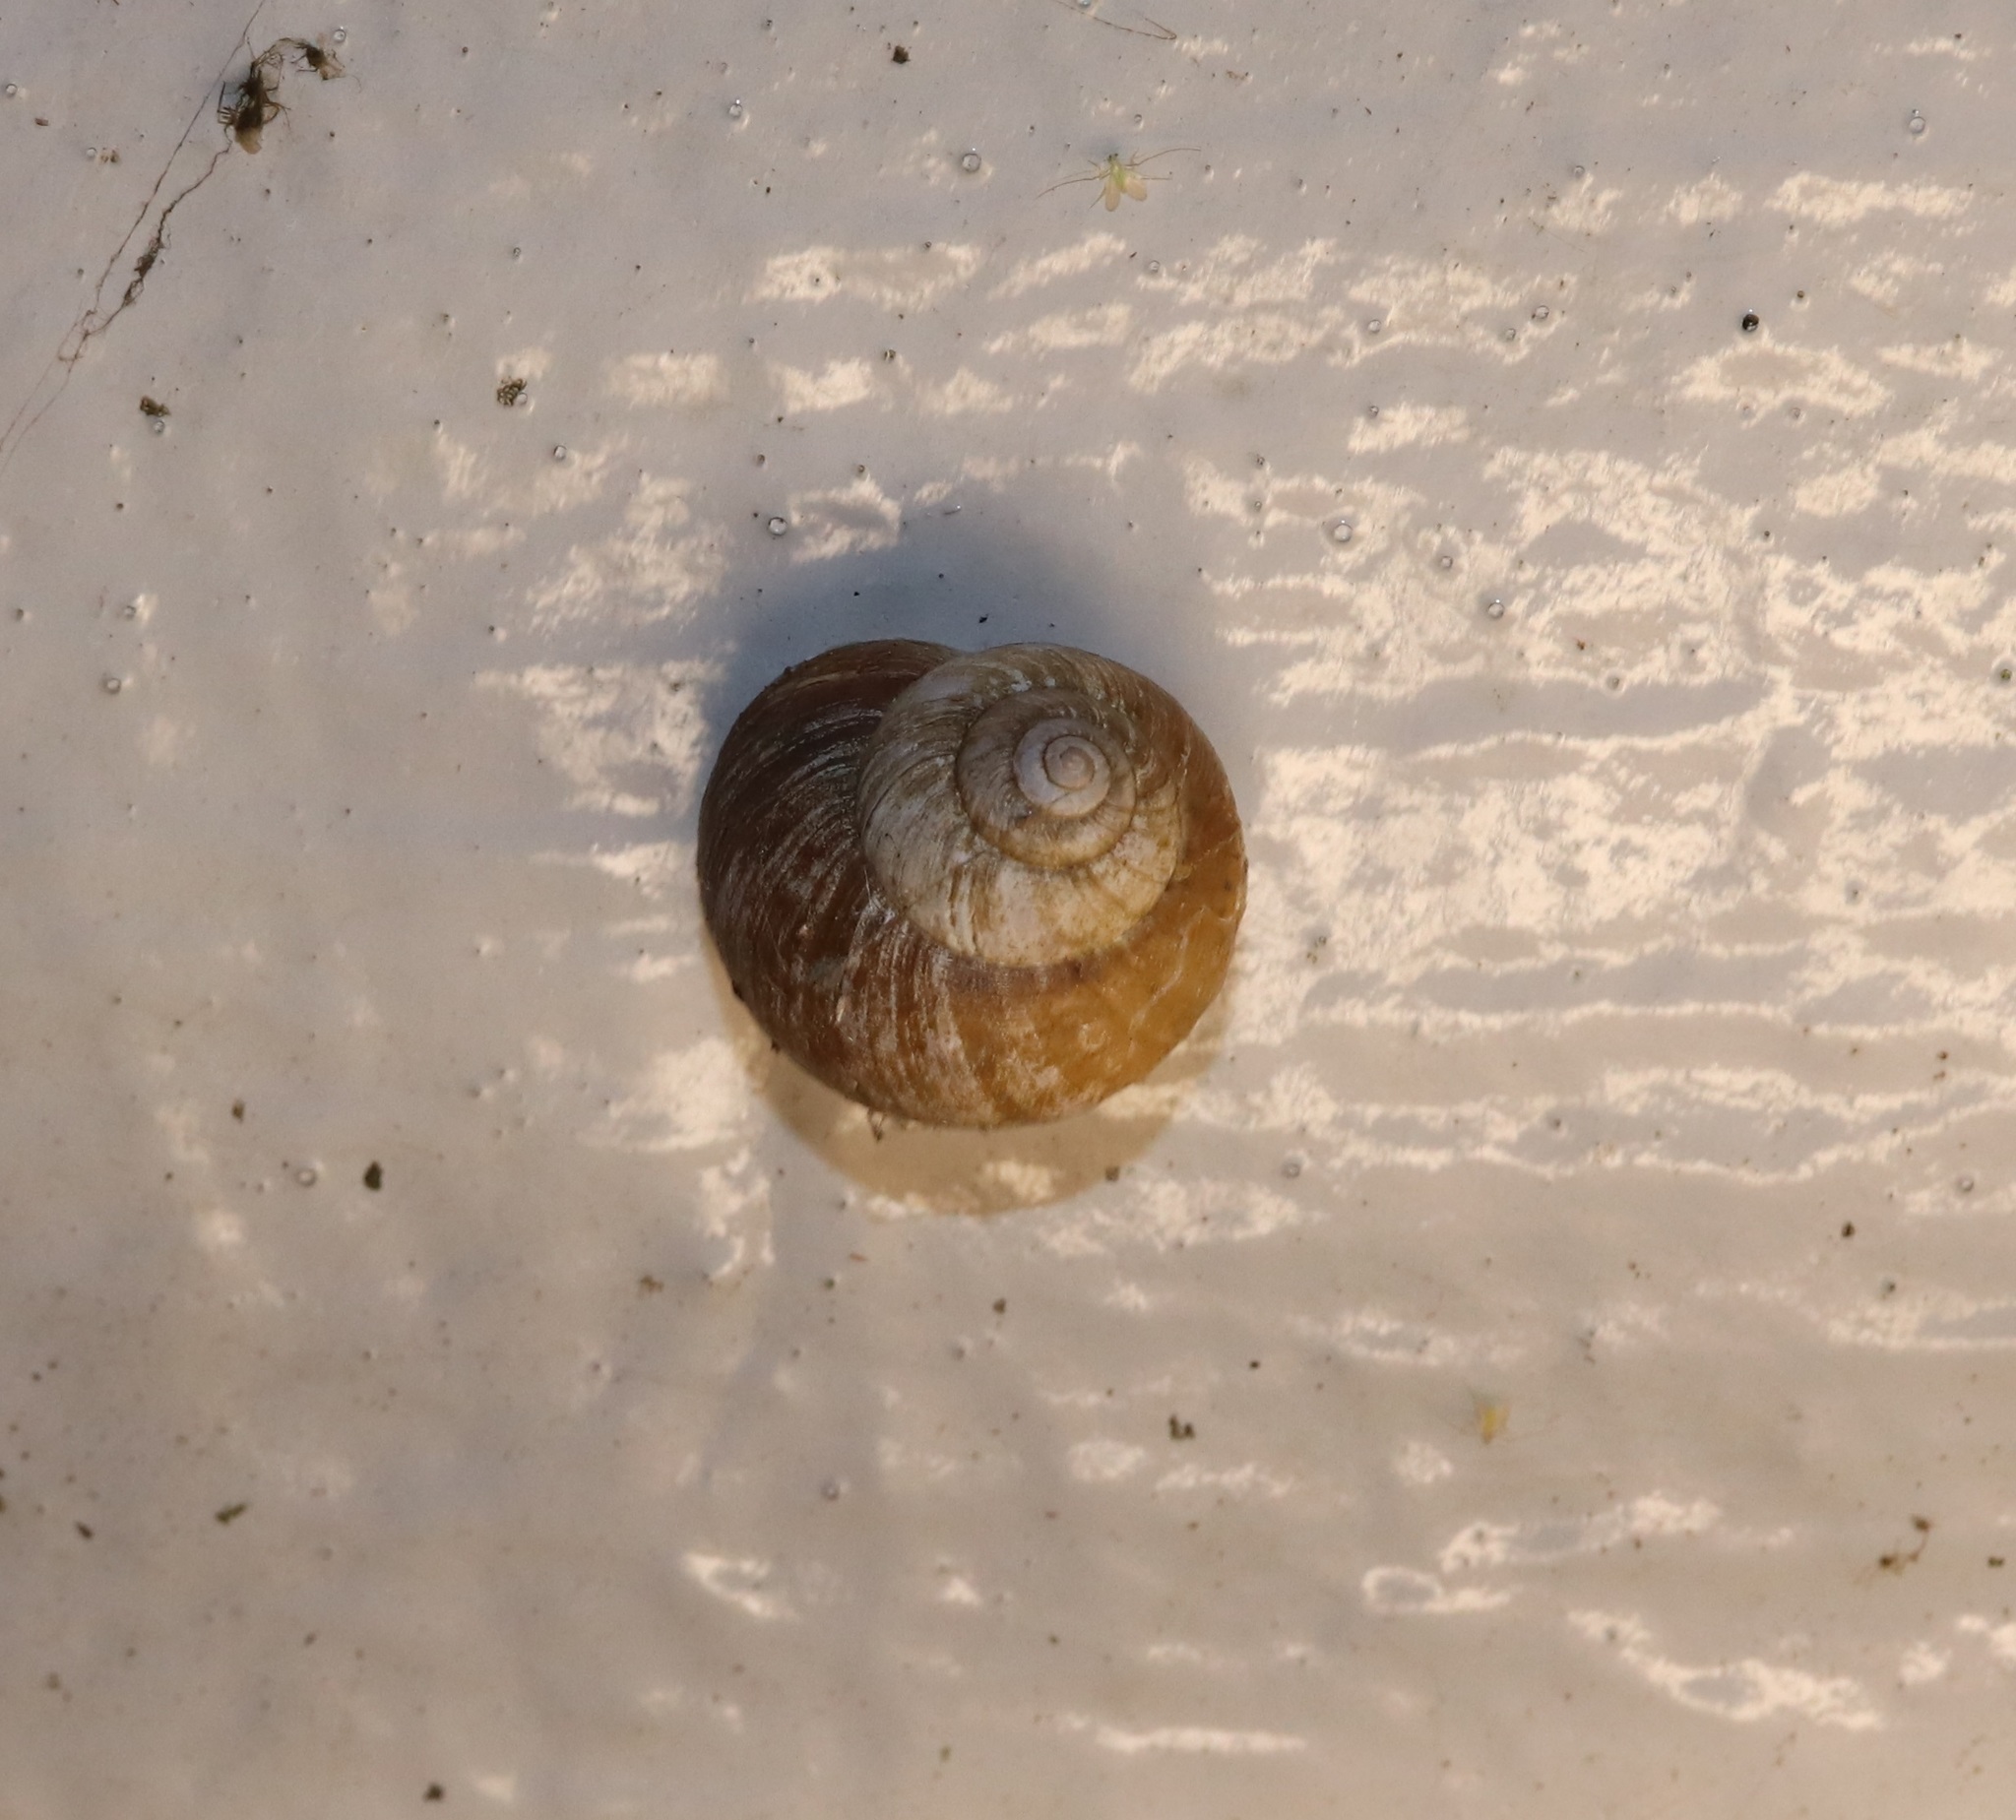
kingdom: Animalia
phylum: Mollusca
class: Gastropoda
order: Stylommatophora
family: Camaenidae
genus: Acusta
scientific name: Acusta sieboldtiana
